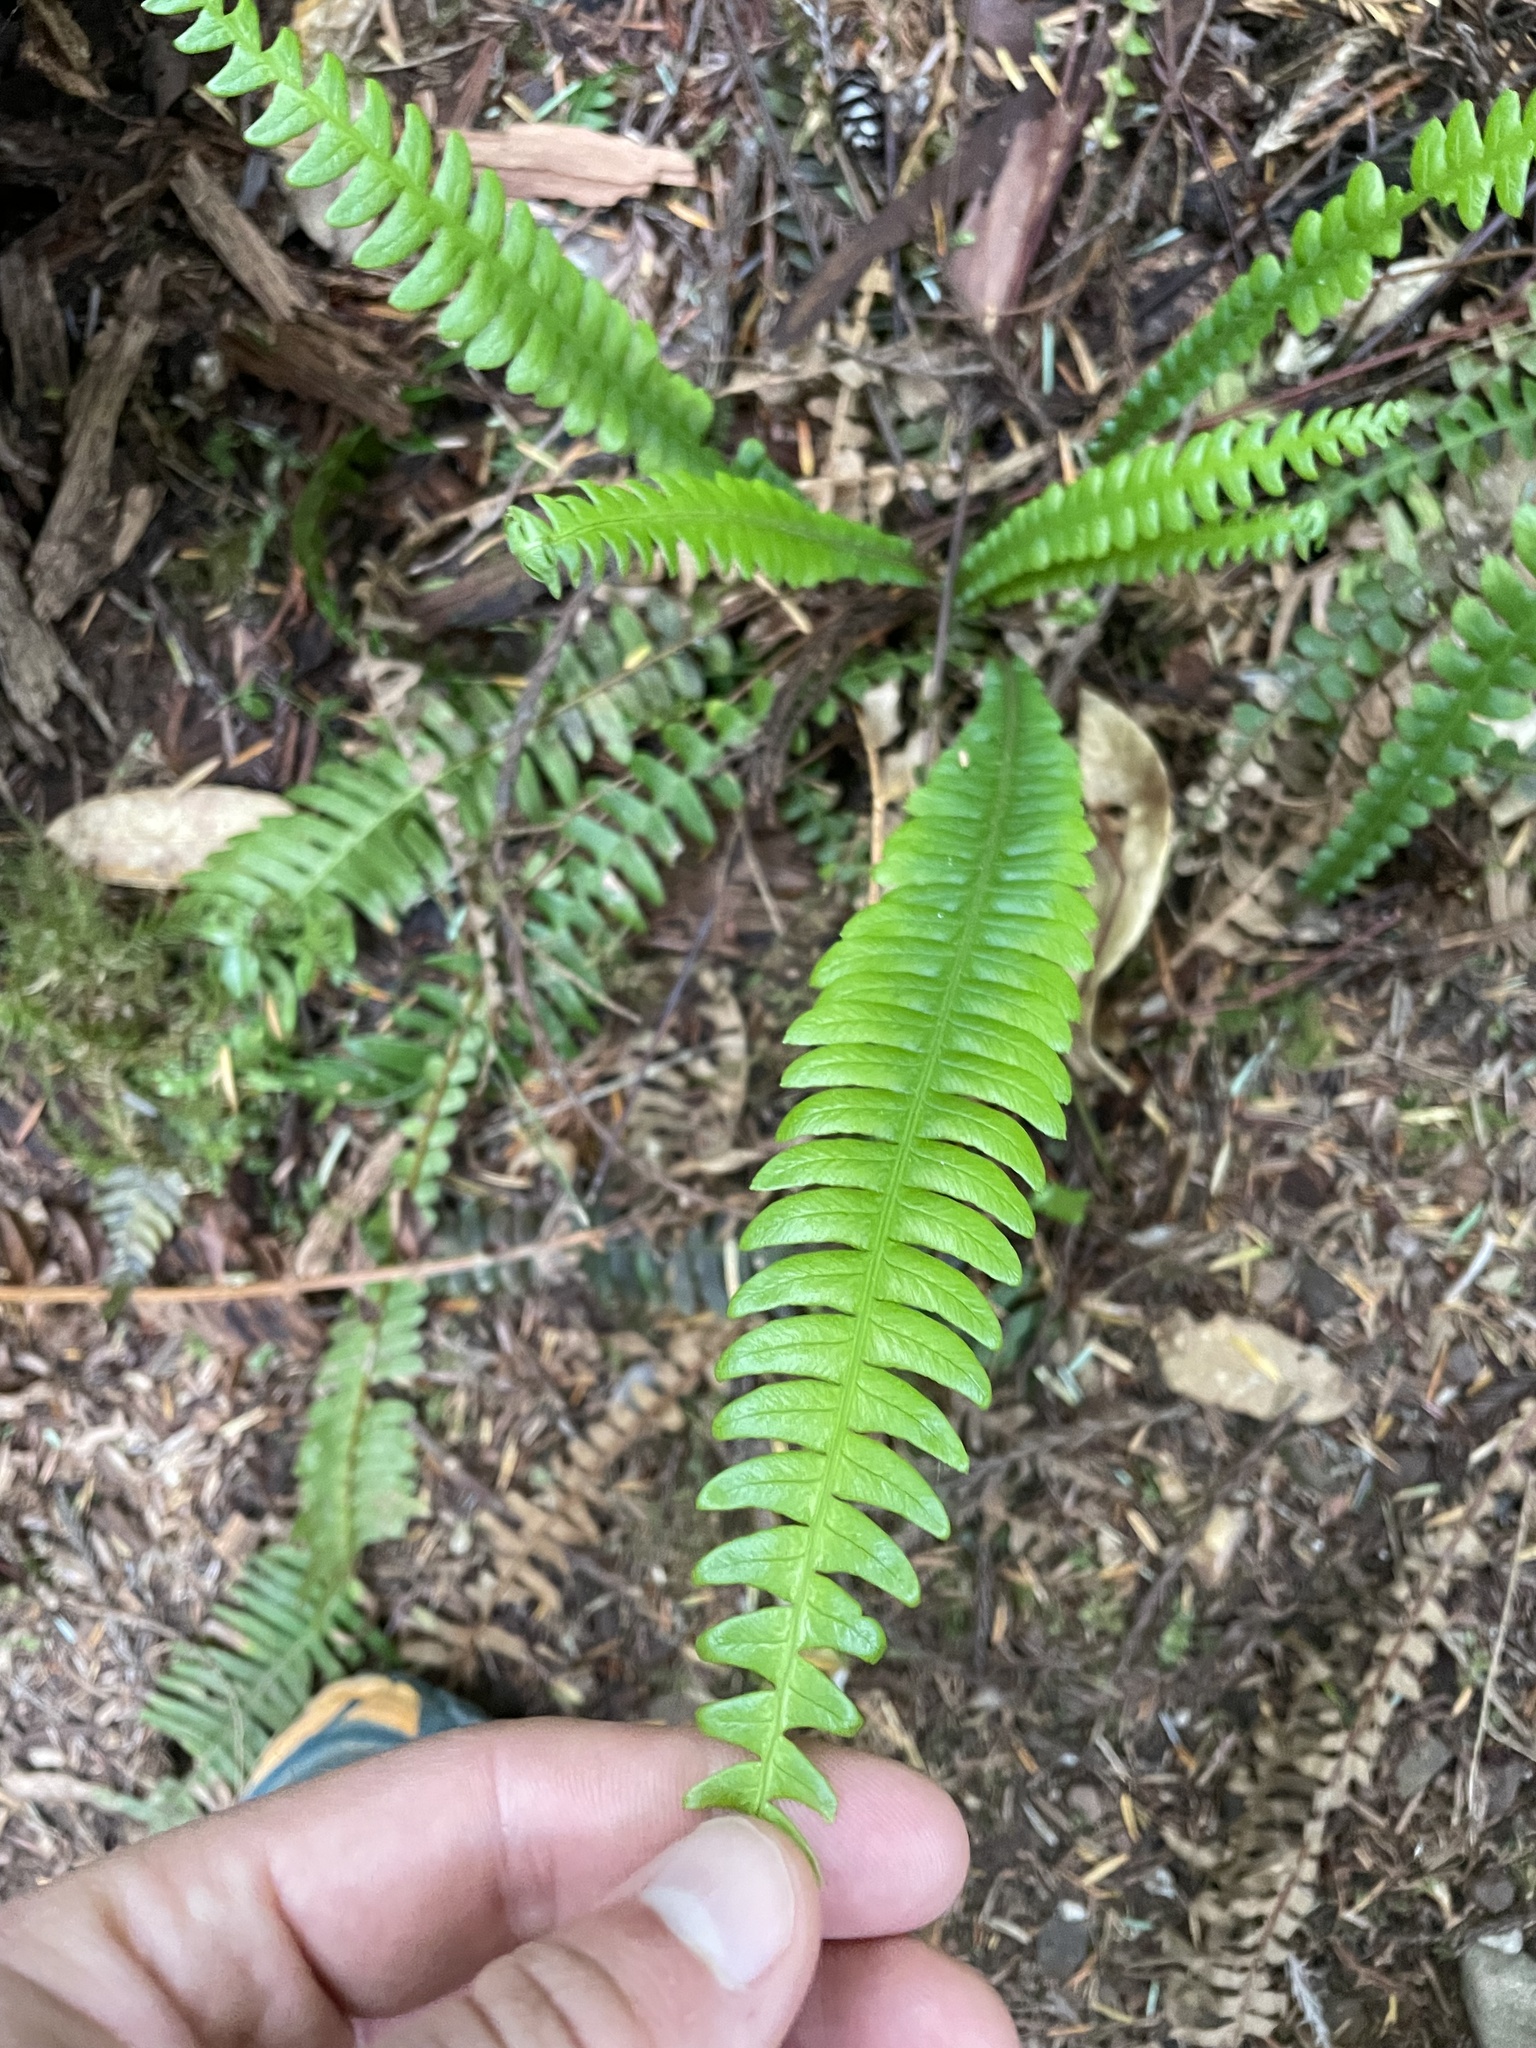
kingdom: Plantae
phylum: Tracheophyta
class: Polypodiopsida
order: Polypodiales
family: Blechnaceae
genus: Struthiopteris
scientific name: Struthiopteris spicant
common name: Deer fern
